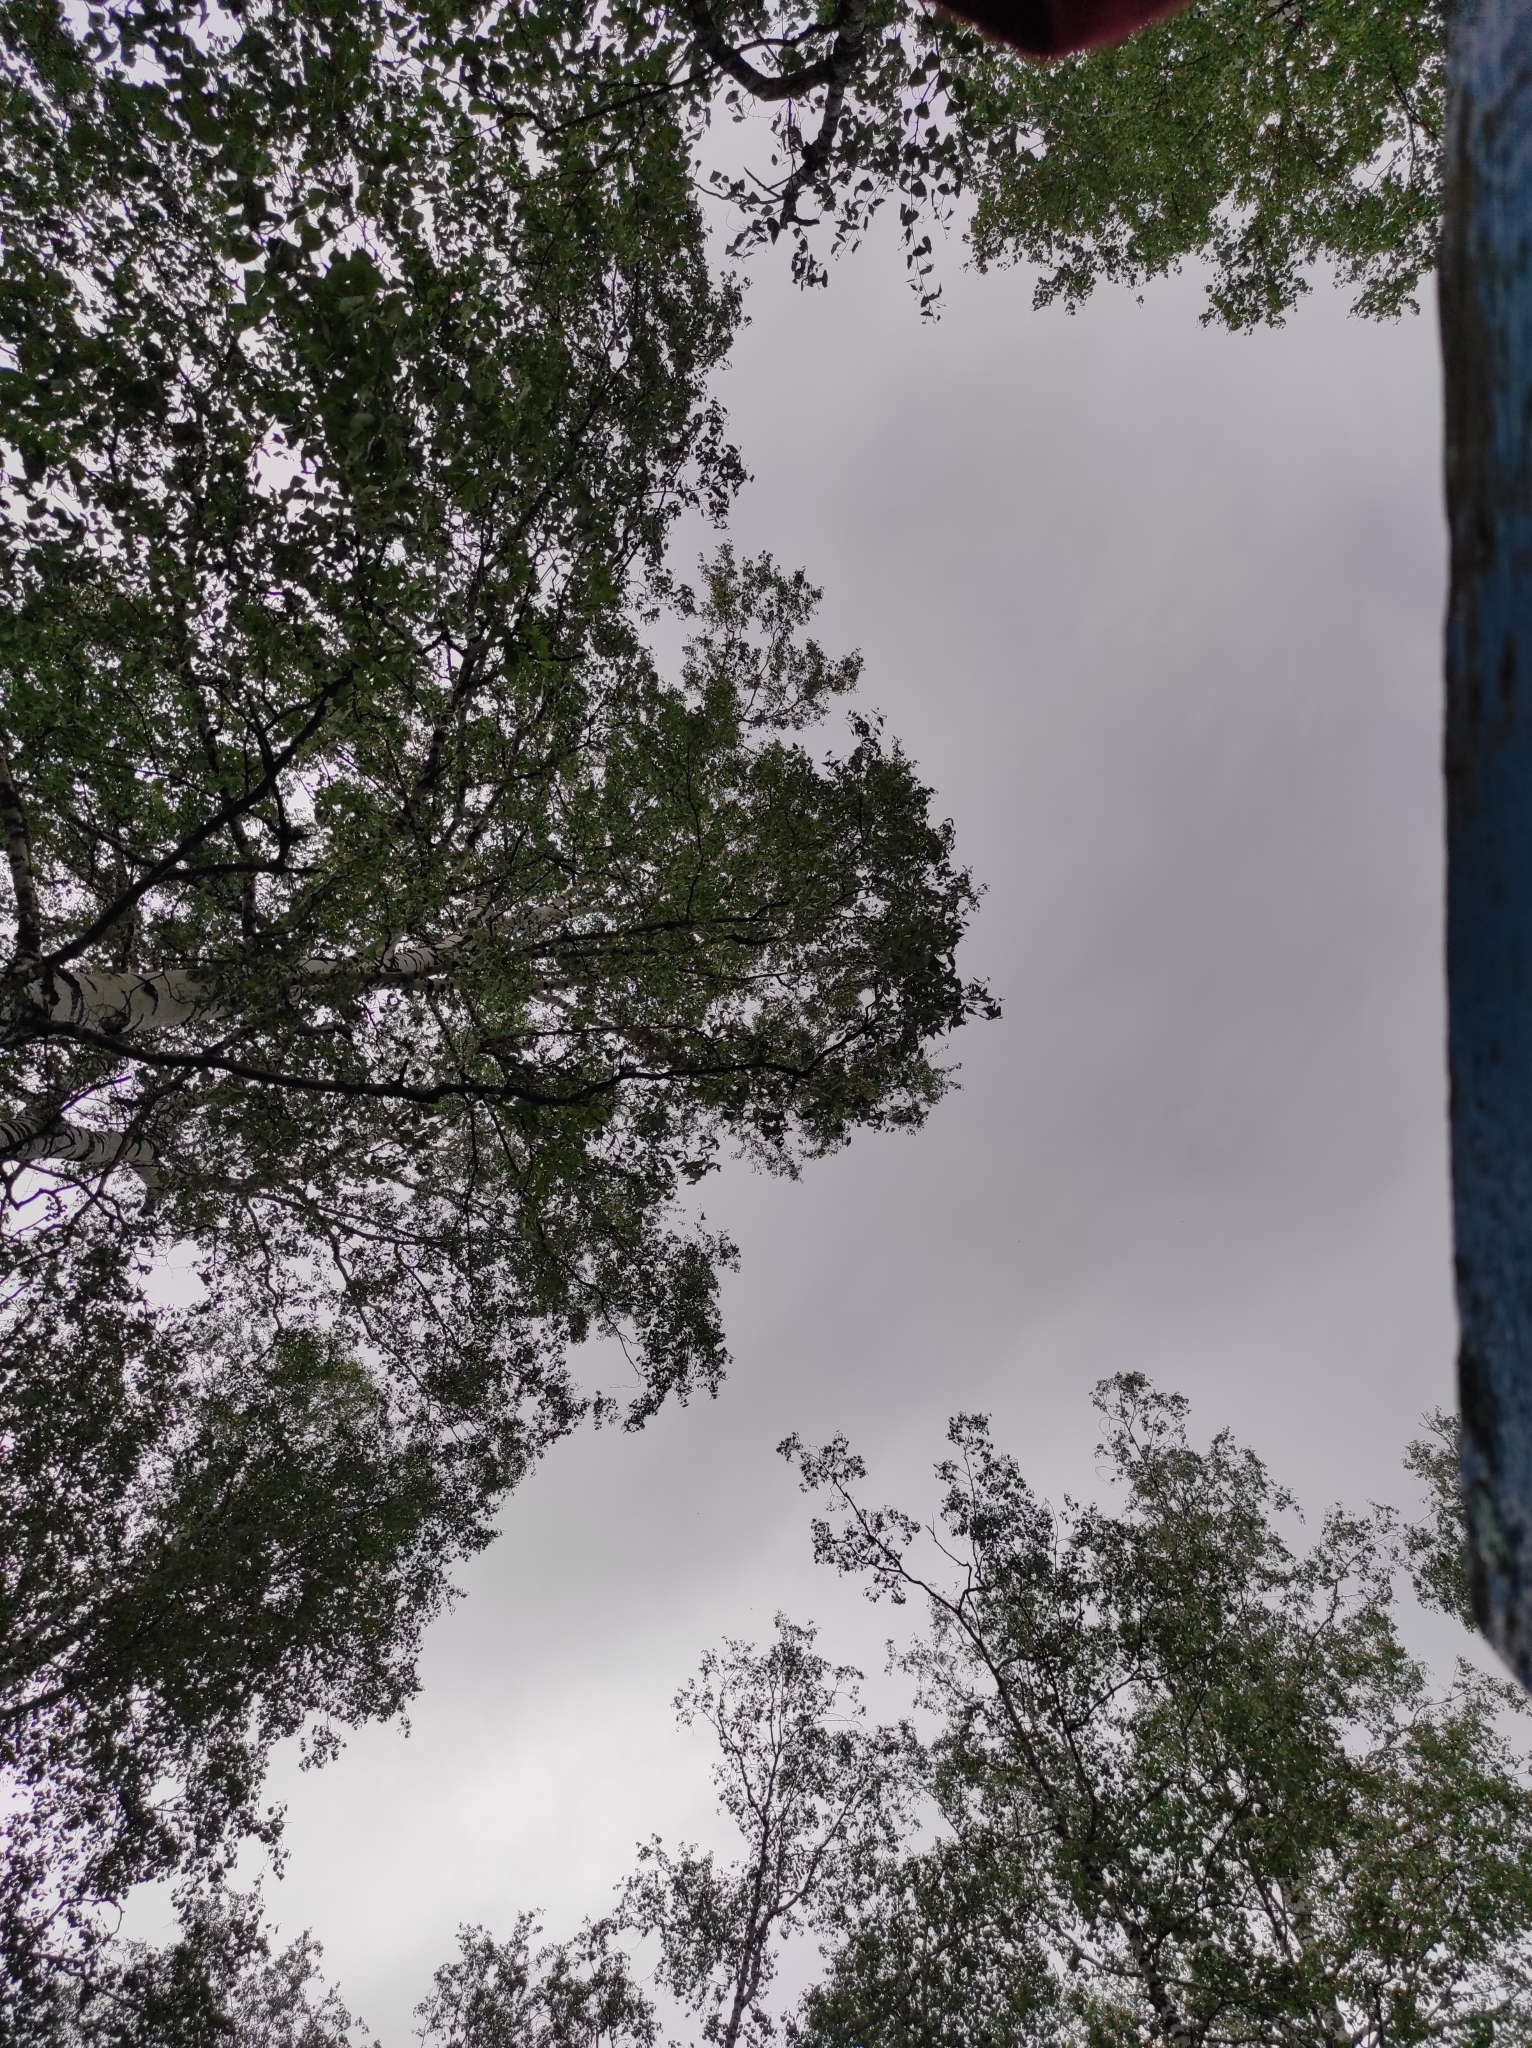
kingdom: Plantae
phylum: Tracheophyta
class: Magnoliopsida
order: Fagales
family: Betulaceae
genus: Betula
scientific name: Betula pendula
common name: Silver birch
